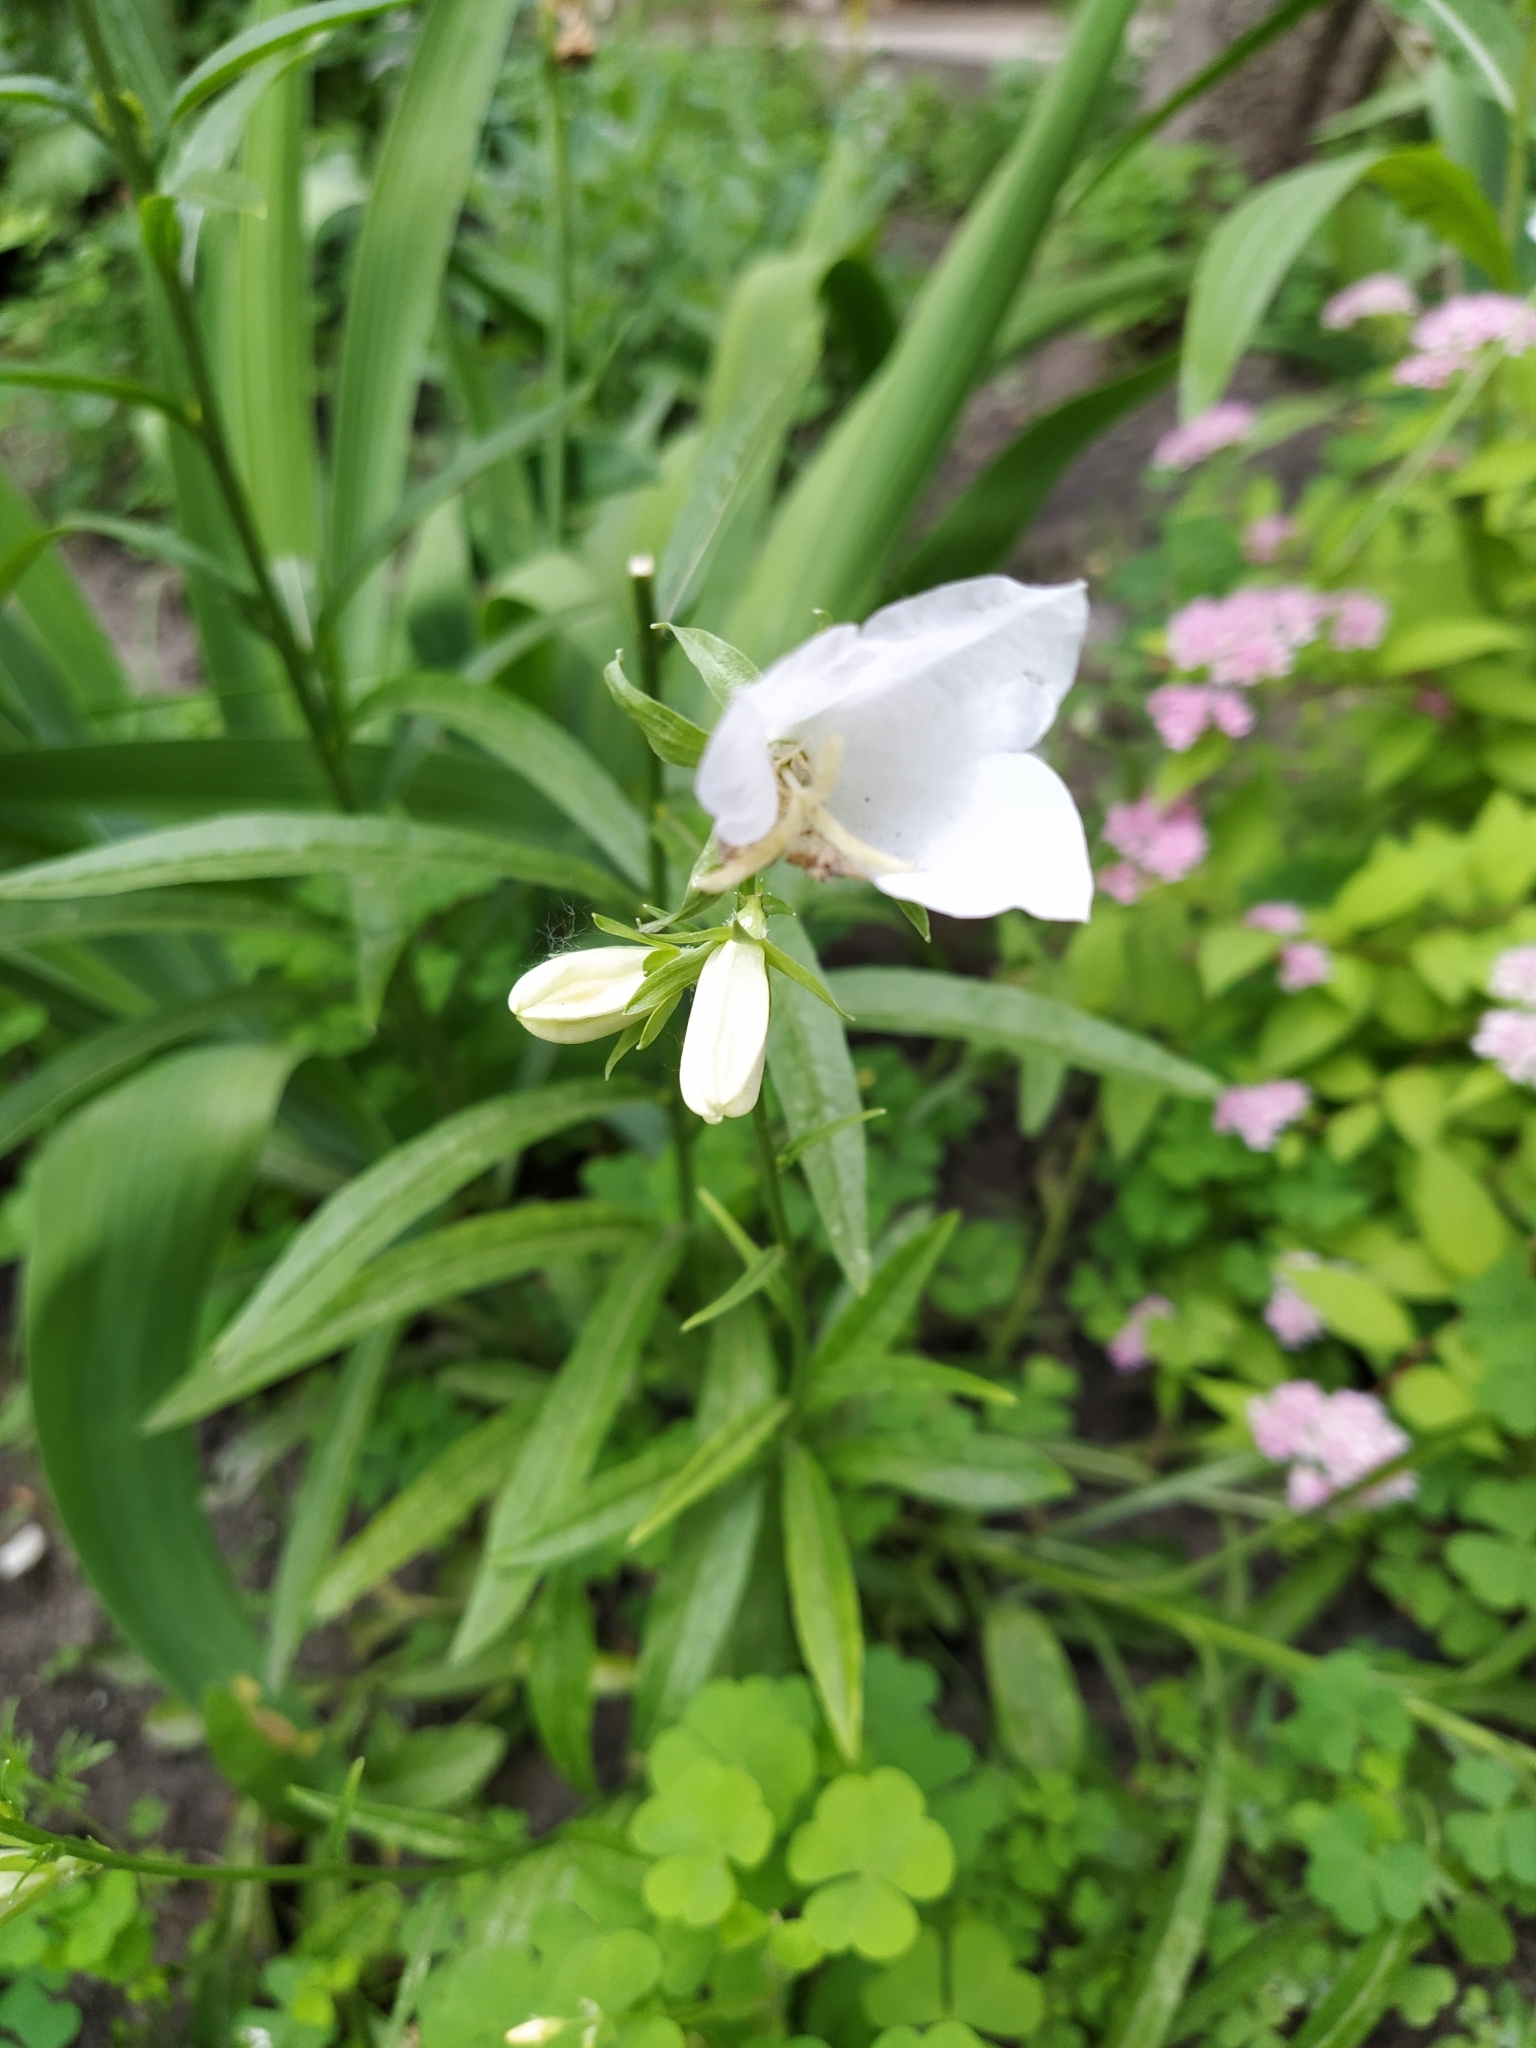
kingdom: Plantae
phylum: Tracheophyta
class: Magnoliopsida
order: Asterales
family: Campanulaceae
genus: Campanula
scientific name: Campanula persicifolia
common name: Peach-leaved bellflower
